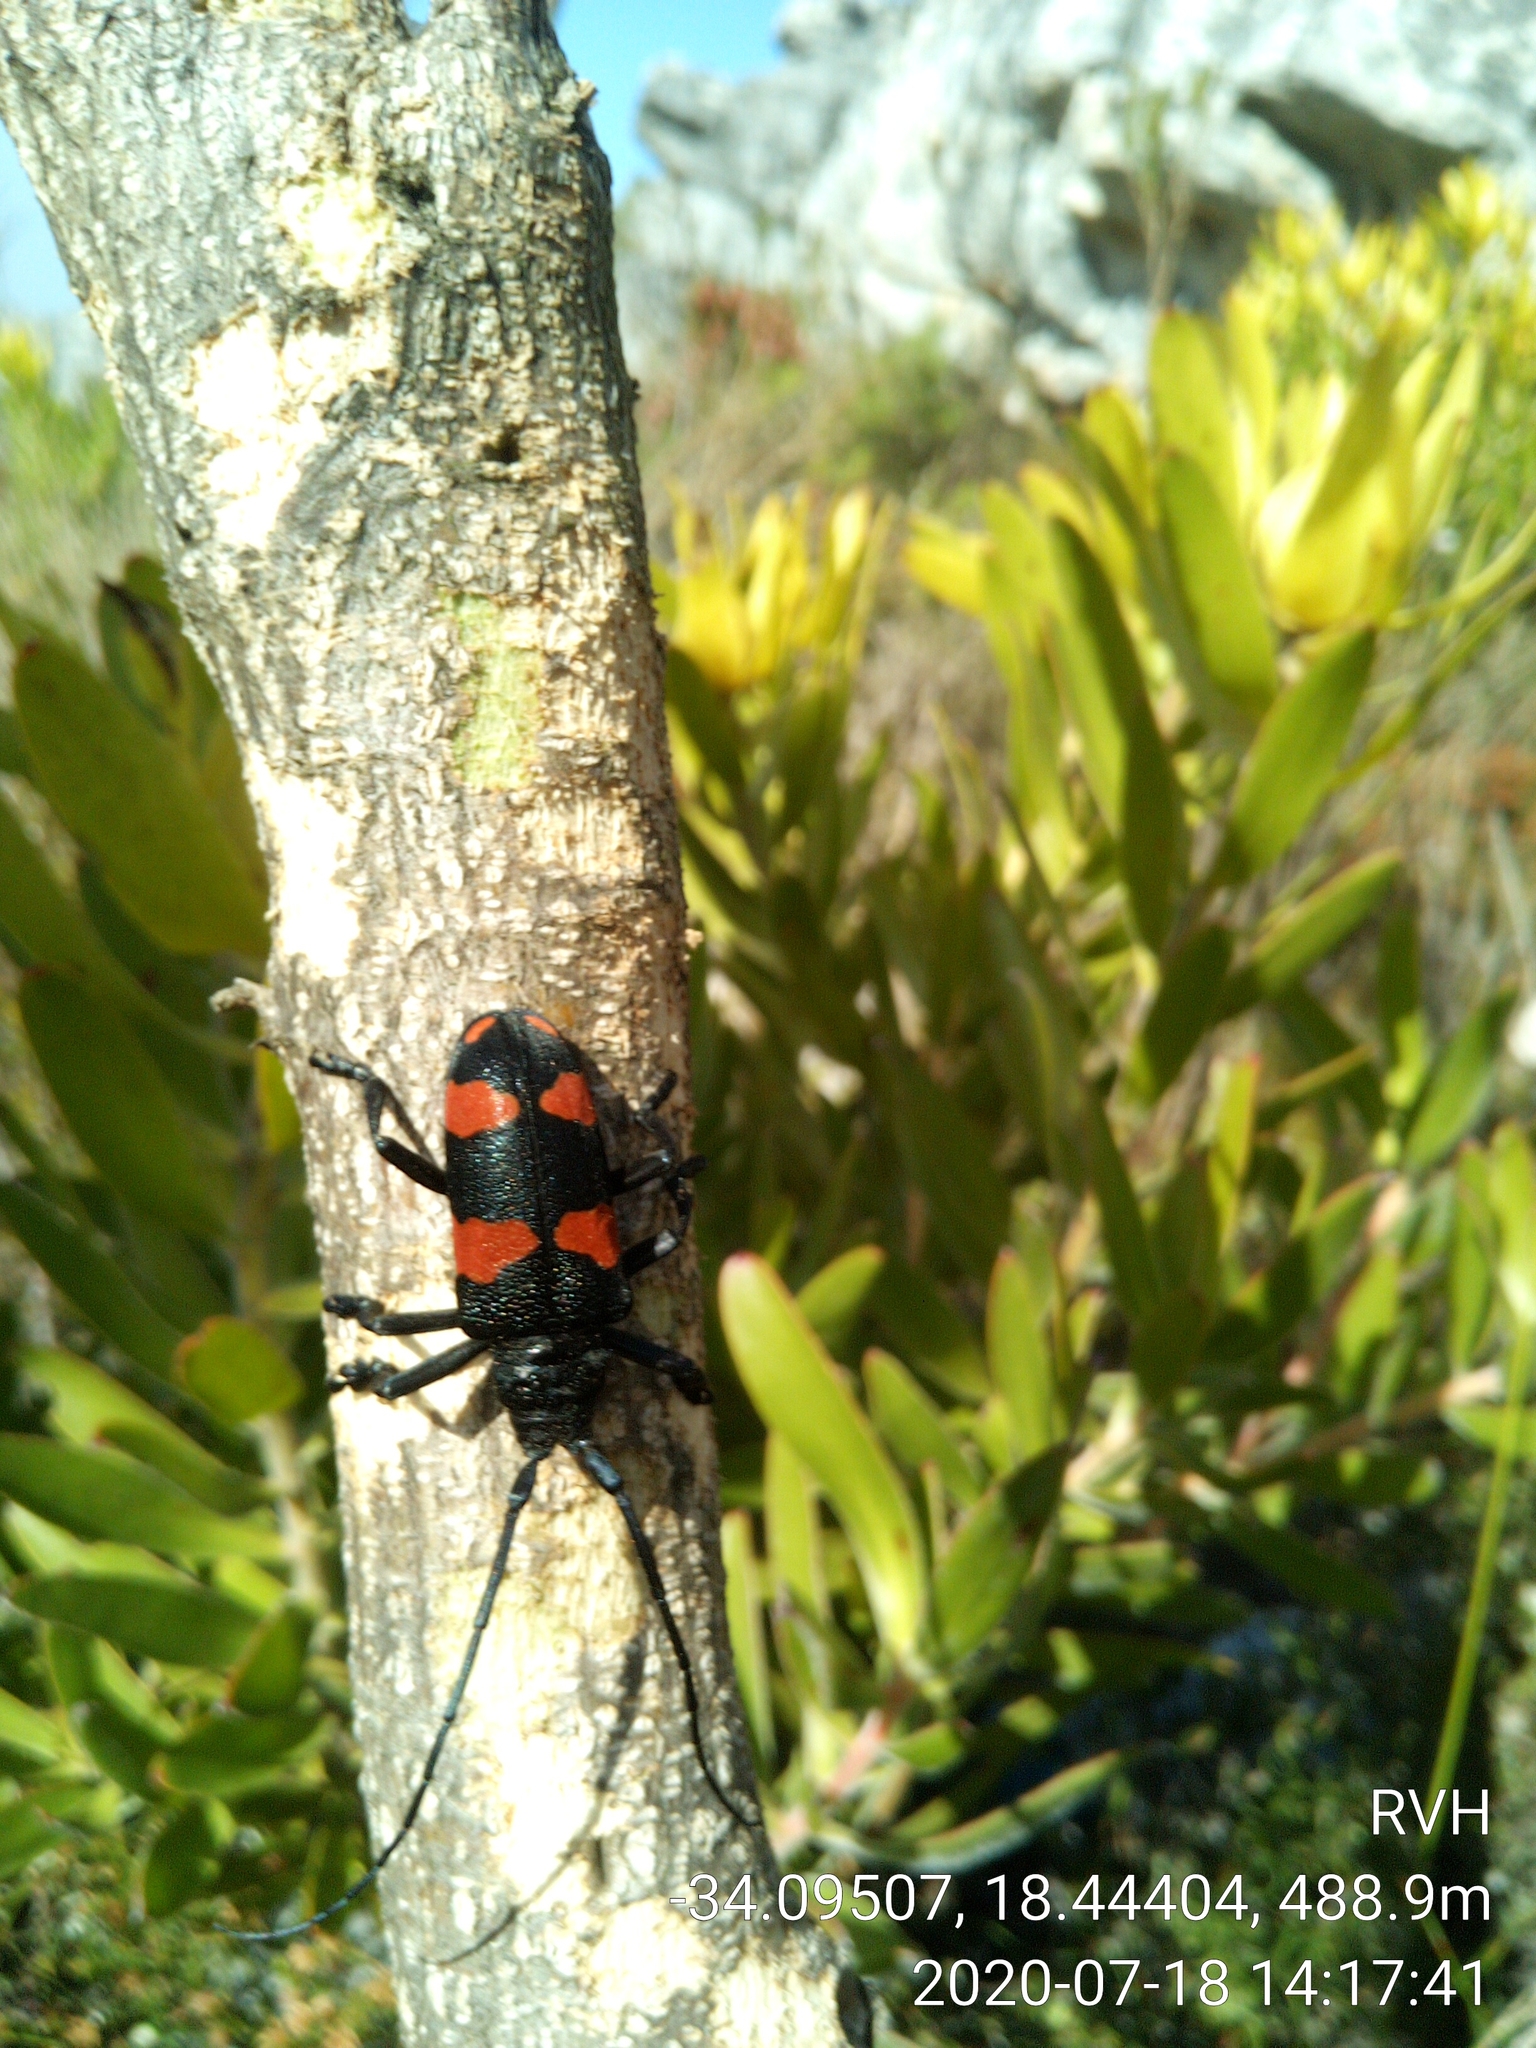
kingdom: Animalia
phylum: Arthropoda
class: Insecta
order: Coleoptera
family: Cerambycidae
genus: Ceroplesis
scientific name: Ceroplesis aethiops
